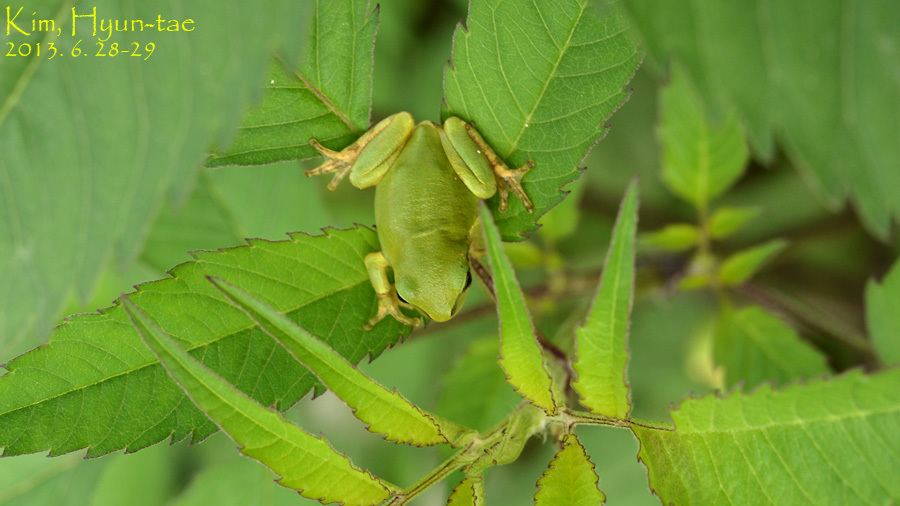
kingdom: Animalia
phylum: Chordata
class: Amphibia
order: Anura
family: Hylidae
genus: Dryophytes
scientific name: Dryophytes japonicus
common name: Japanese treefrog
